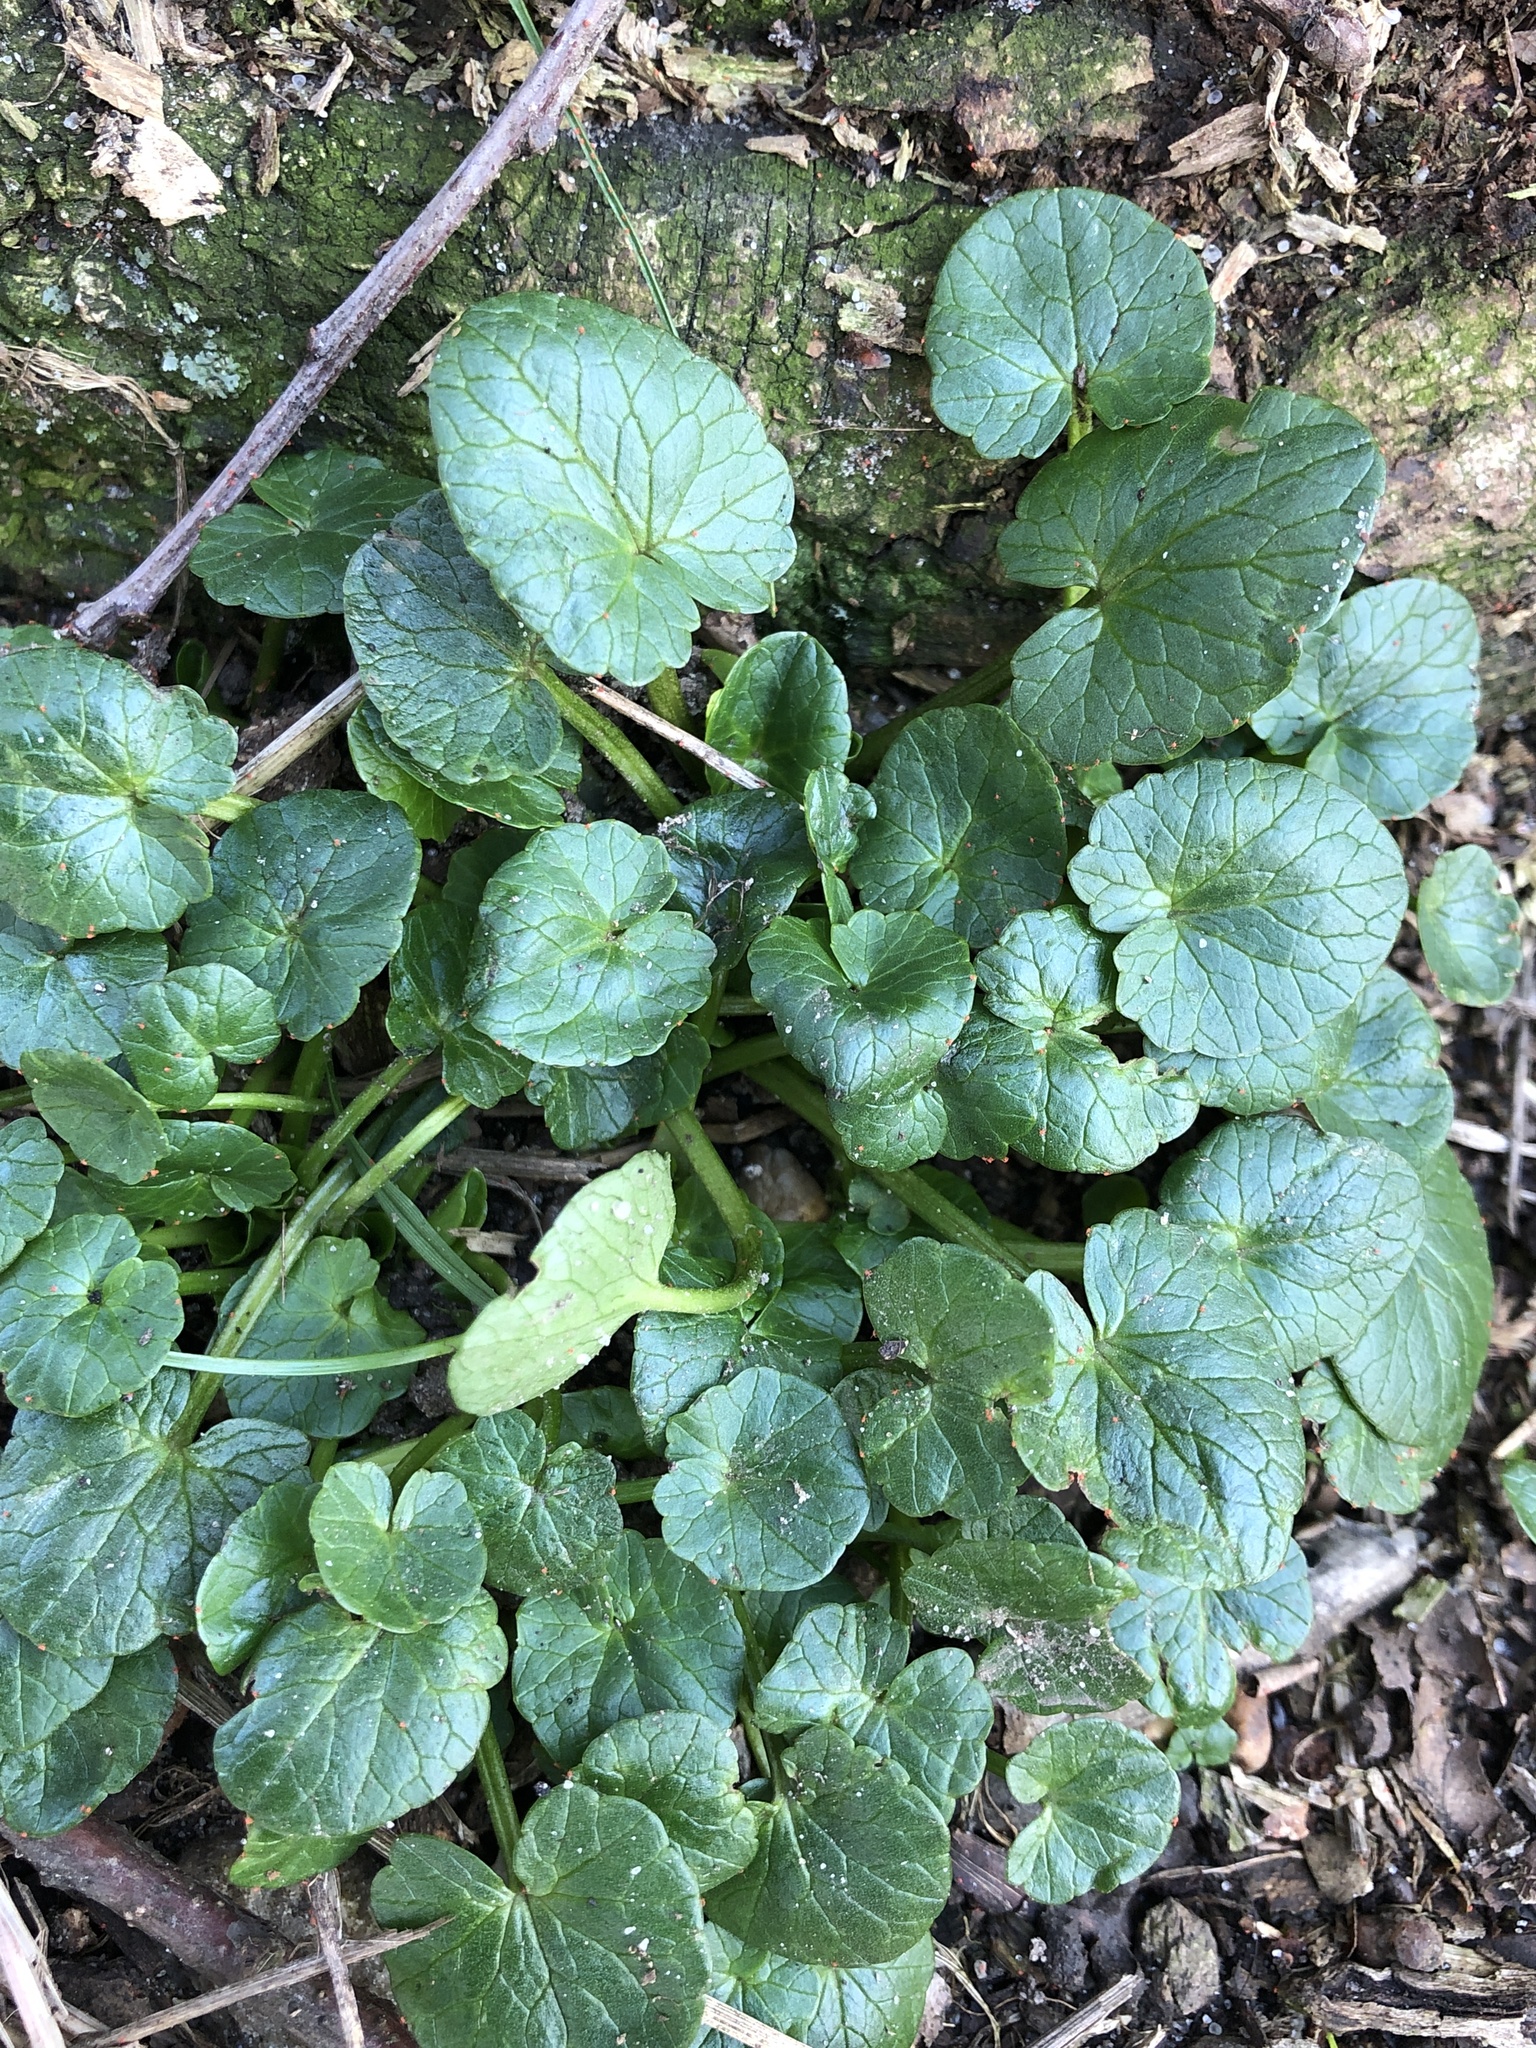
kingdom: Plantae
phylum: Tracheophyta
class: Magnoliopsida
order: Ranunculales
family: Ranunculaceae
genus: Ficaria
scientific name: Ficaria verna
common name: Lesser celandine
